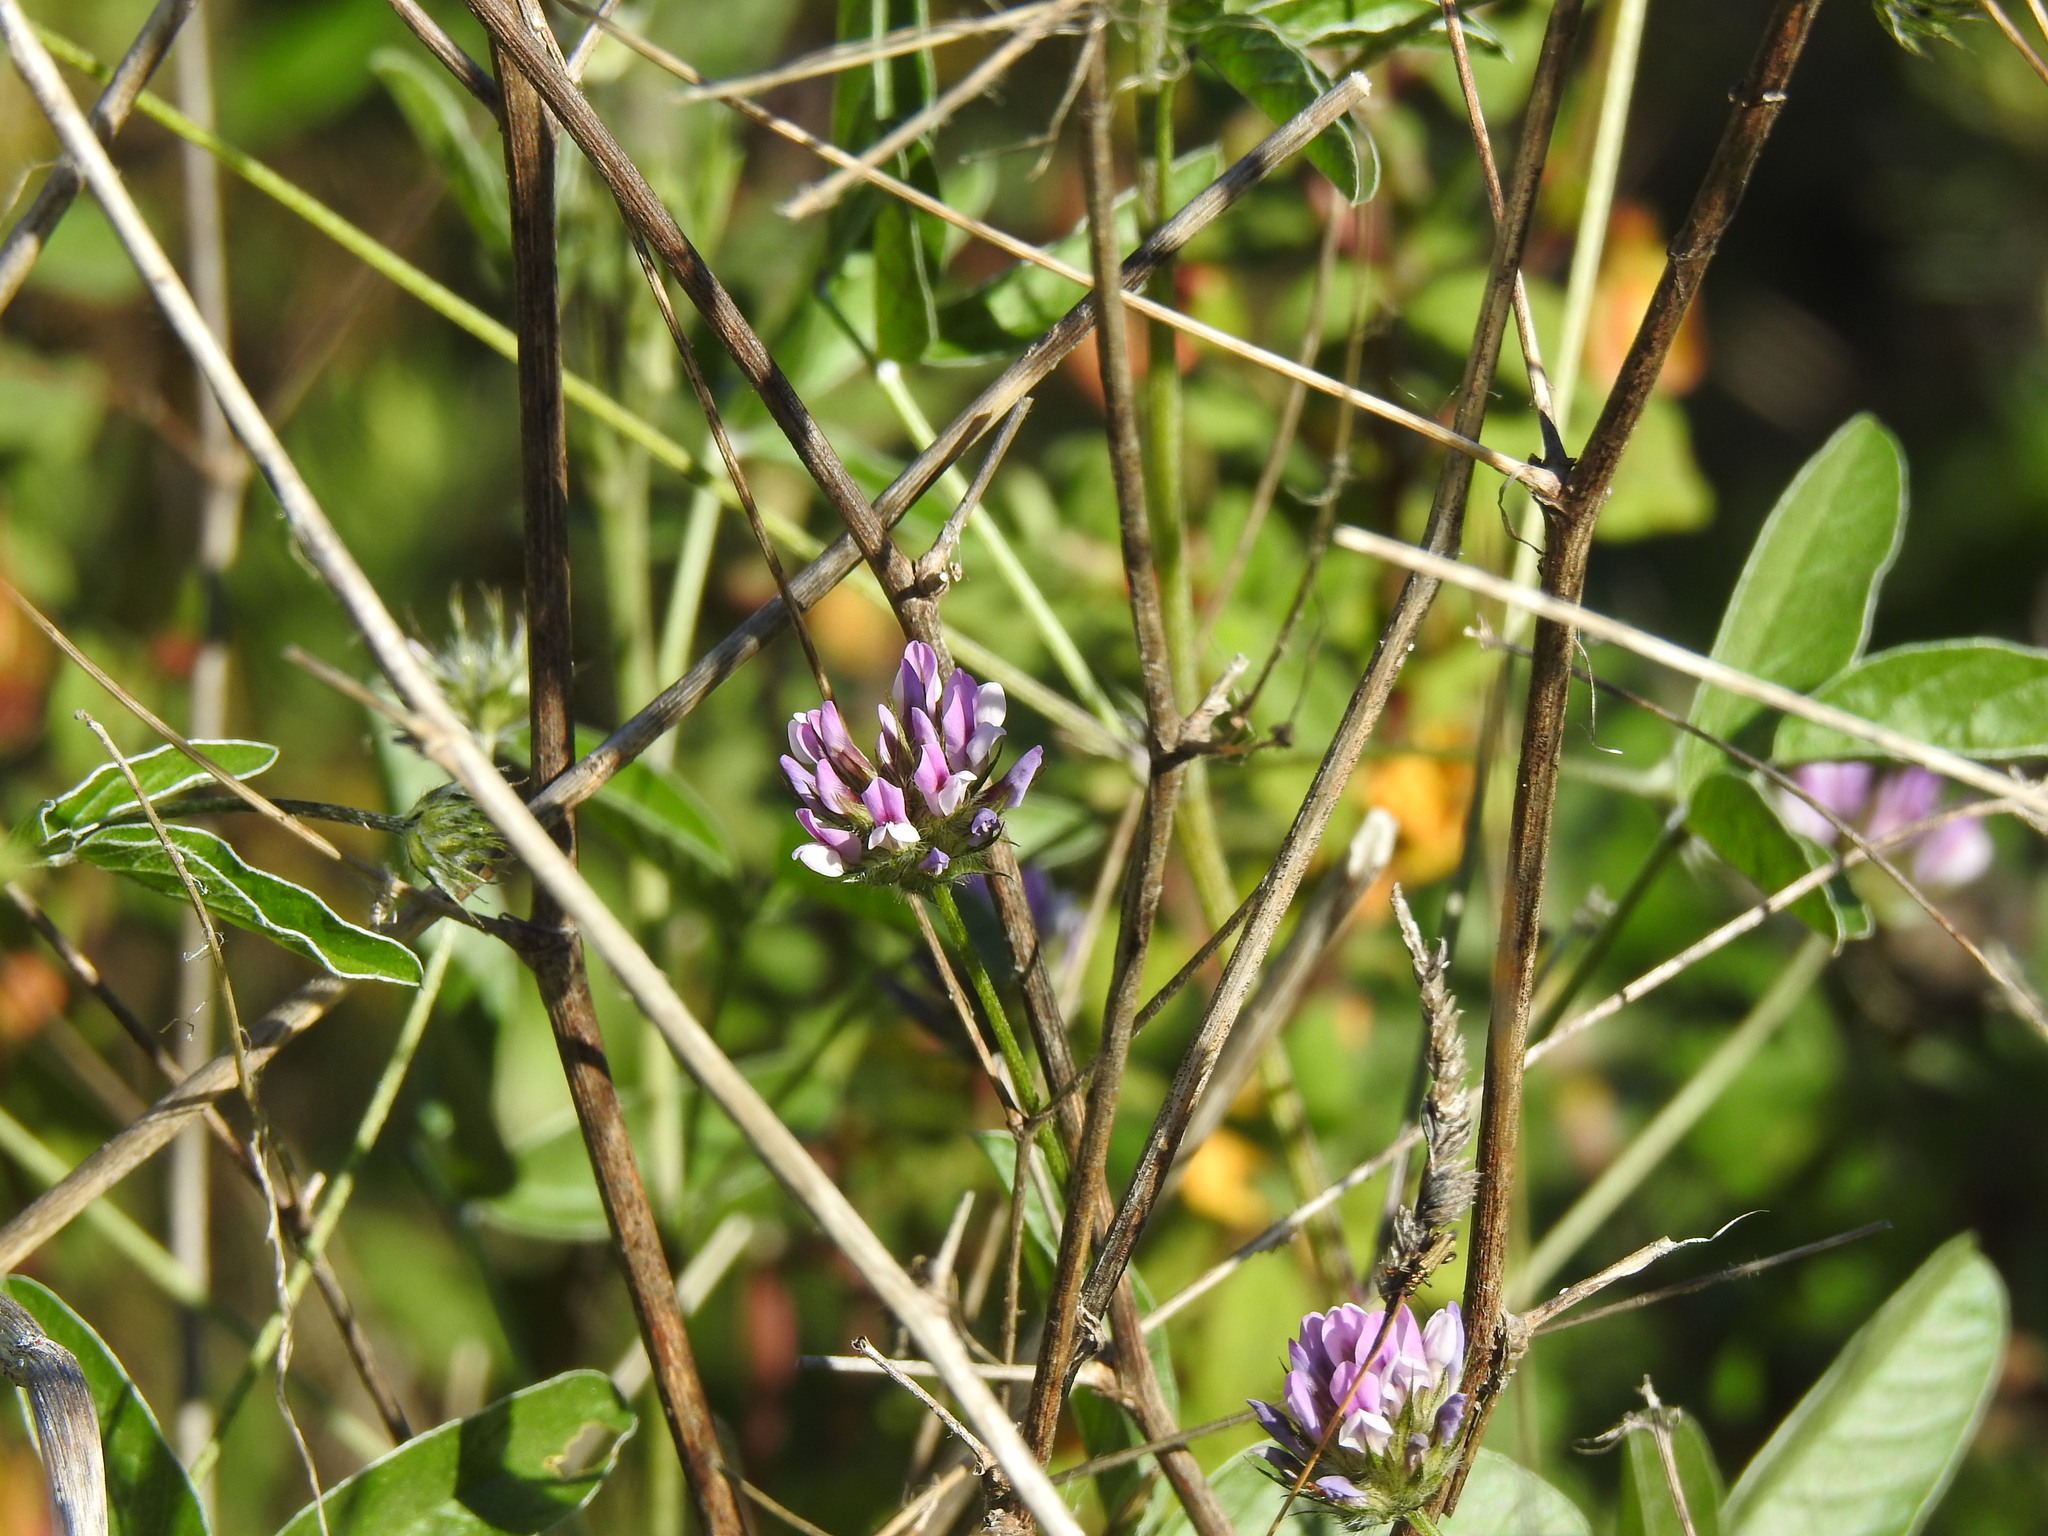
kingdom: Plantae
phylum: Tracheophyta
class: Magnoliopsida
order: Fabales
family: Fabaceae
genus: Bituminaria
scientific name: Bituminaria bituminosa
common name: Arabian pea
